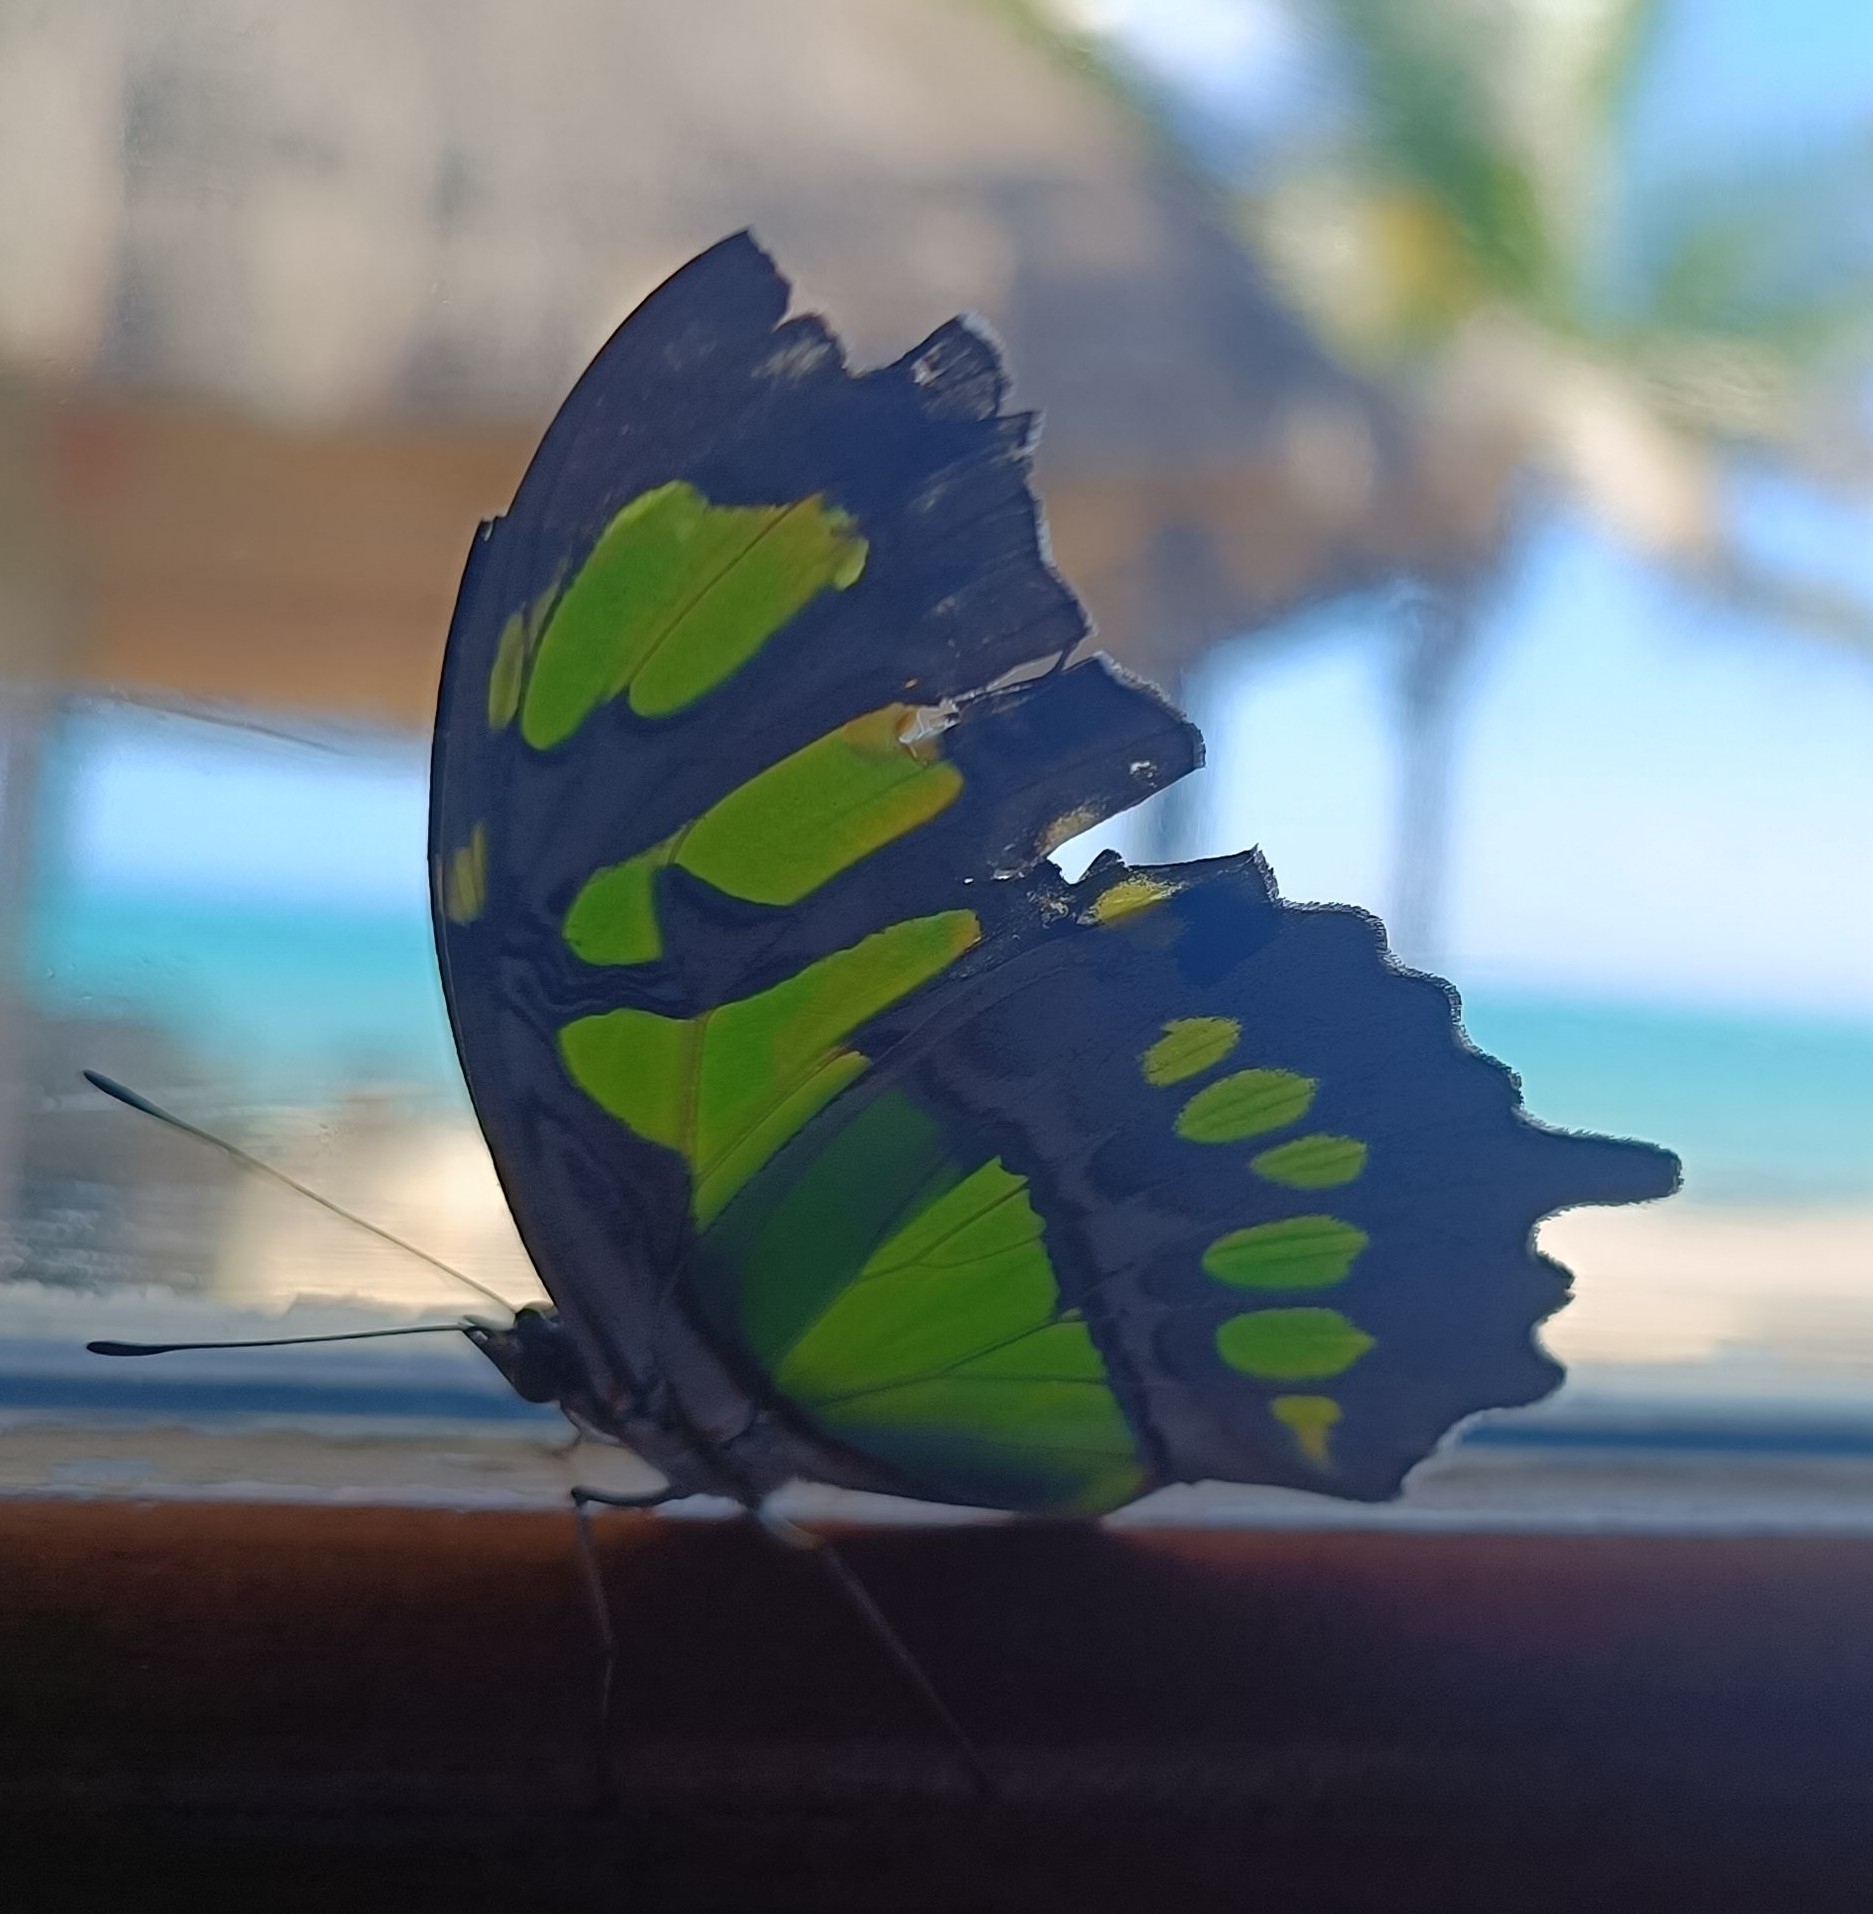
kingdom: Animalia
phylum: Arthropoda
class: Insecta
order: Lepidoptera
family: Nymphalidae
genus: Siproeta
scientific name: Siproeta stelenes
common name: Malachite
